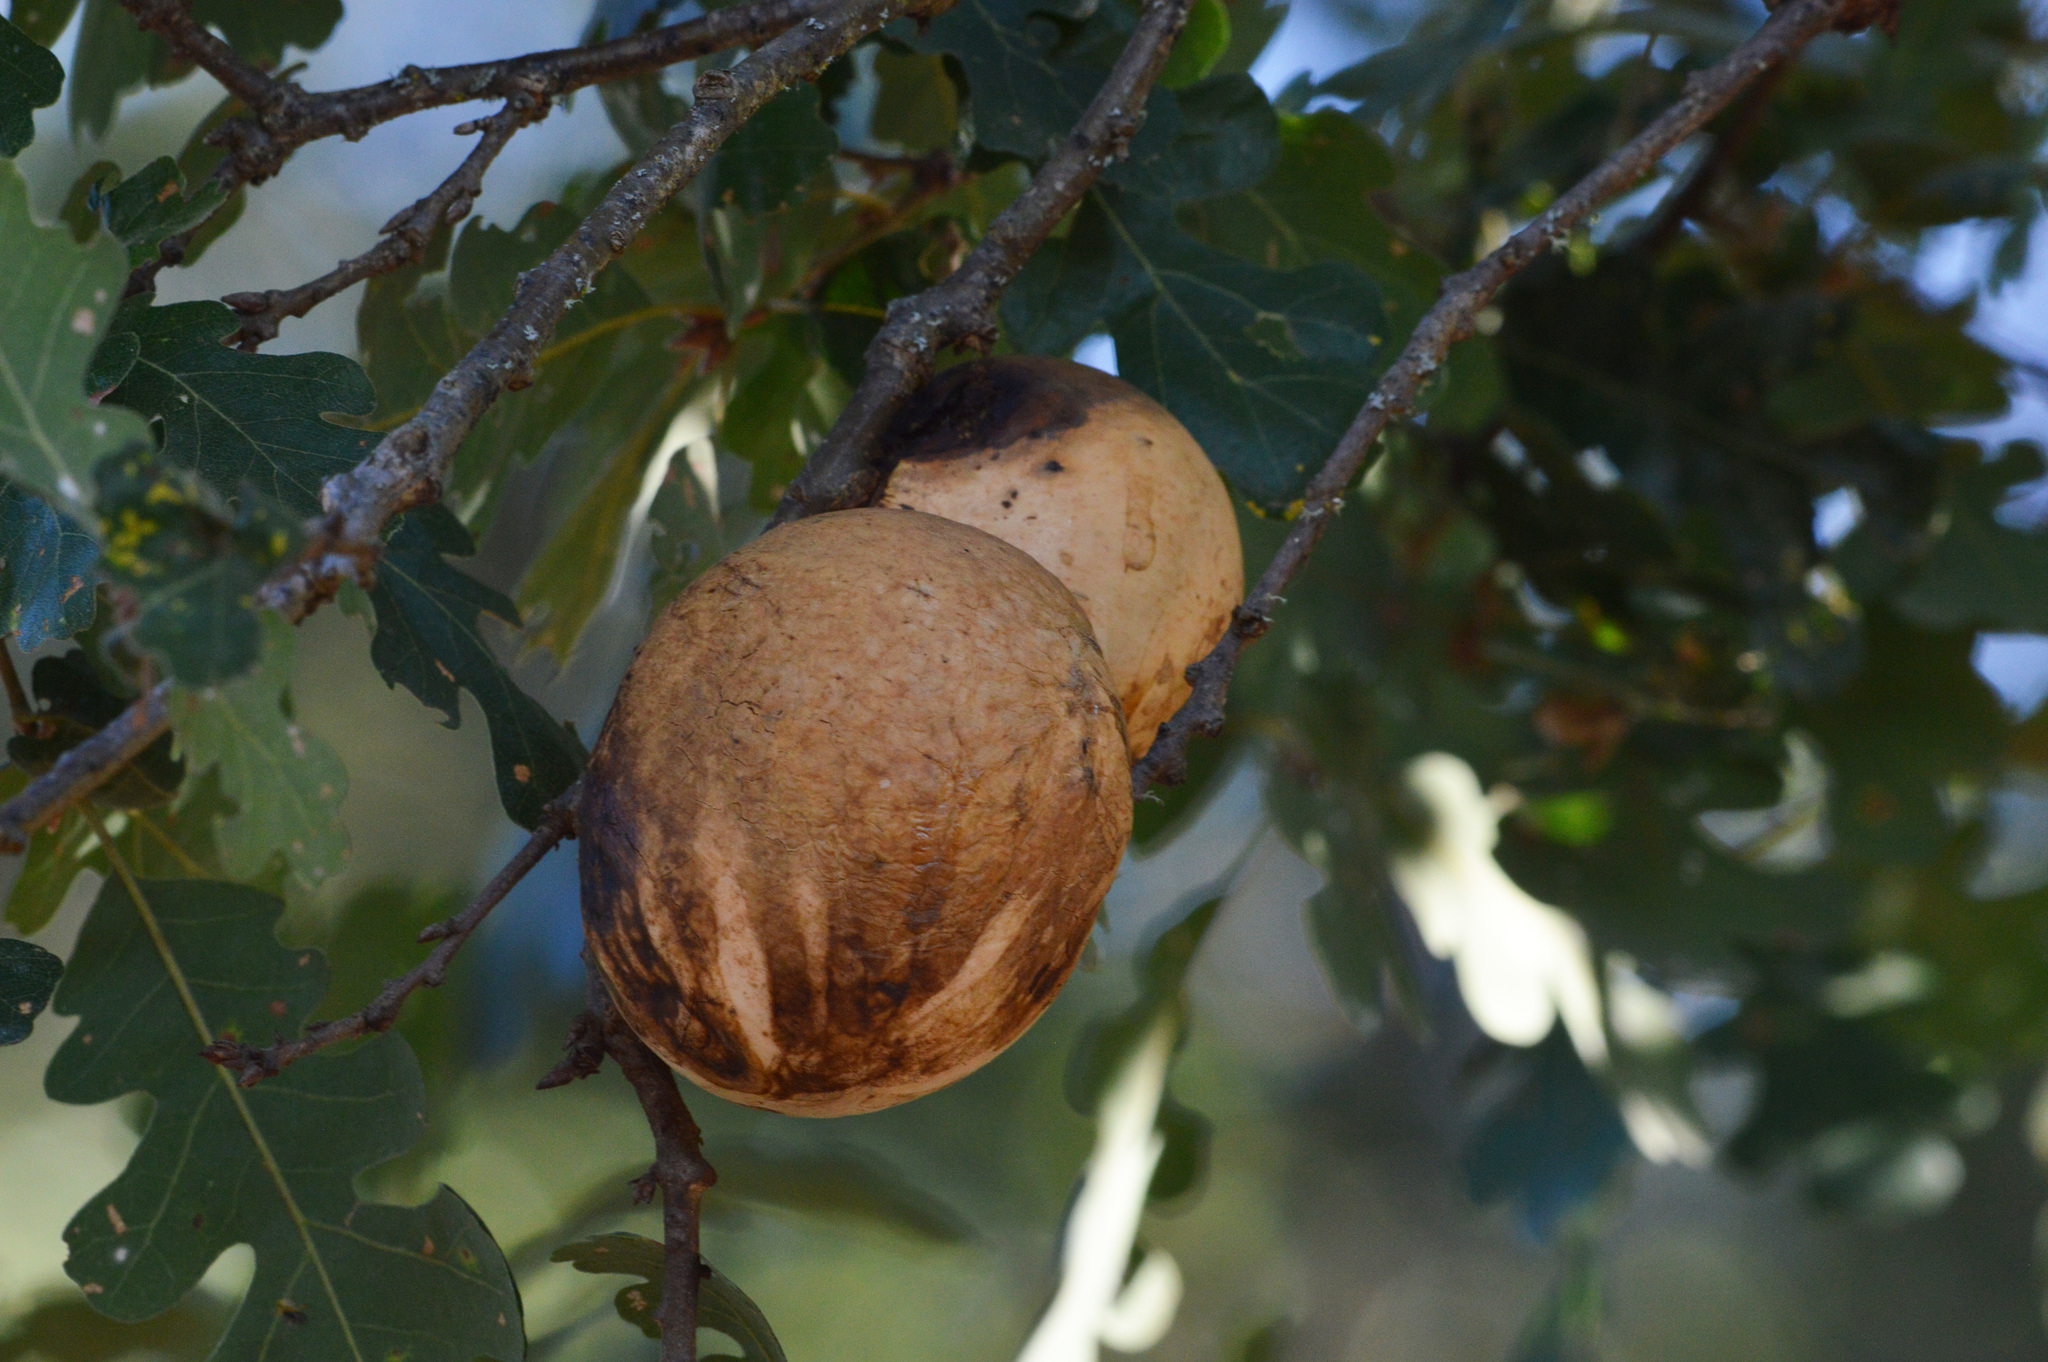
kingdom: Animalia
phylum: Arthropoda
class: Insecta
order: Hymenoptera
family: Cynipidae
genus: Andricus
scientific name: Andricus quercuscalifornicus
